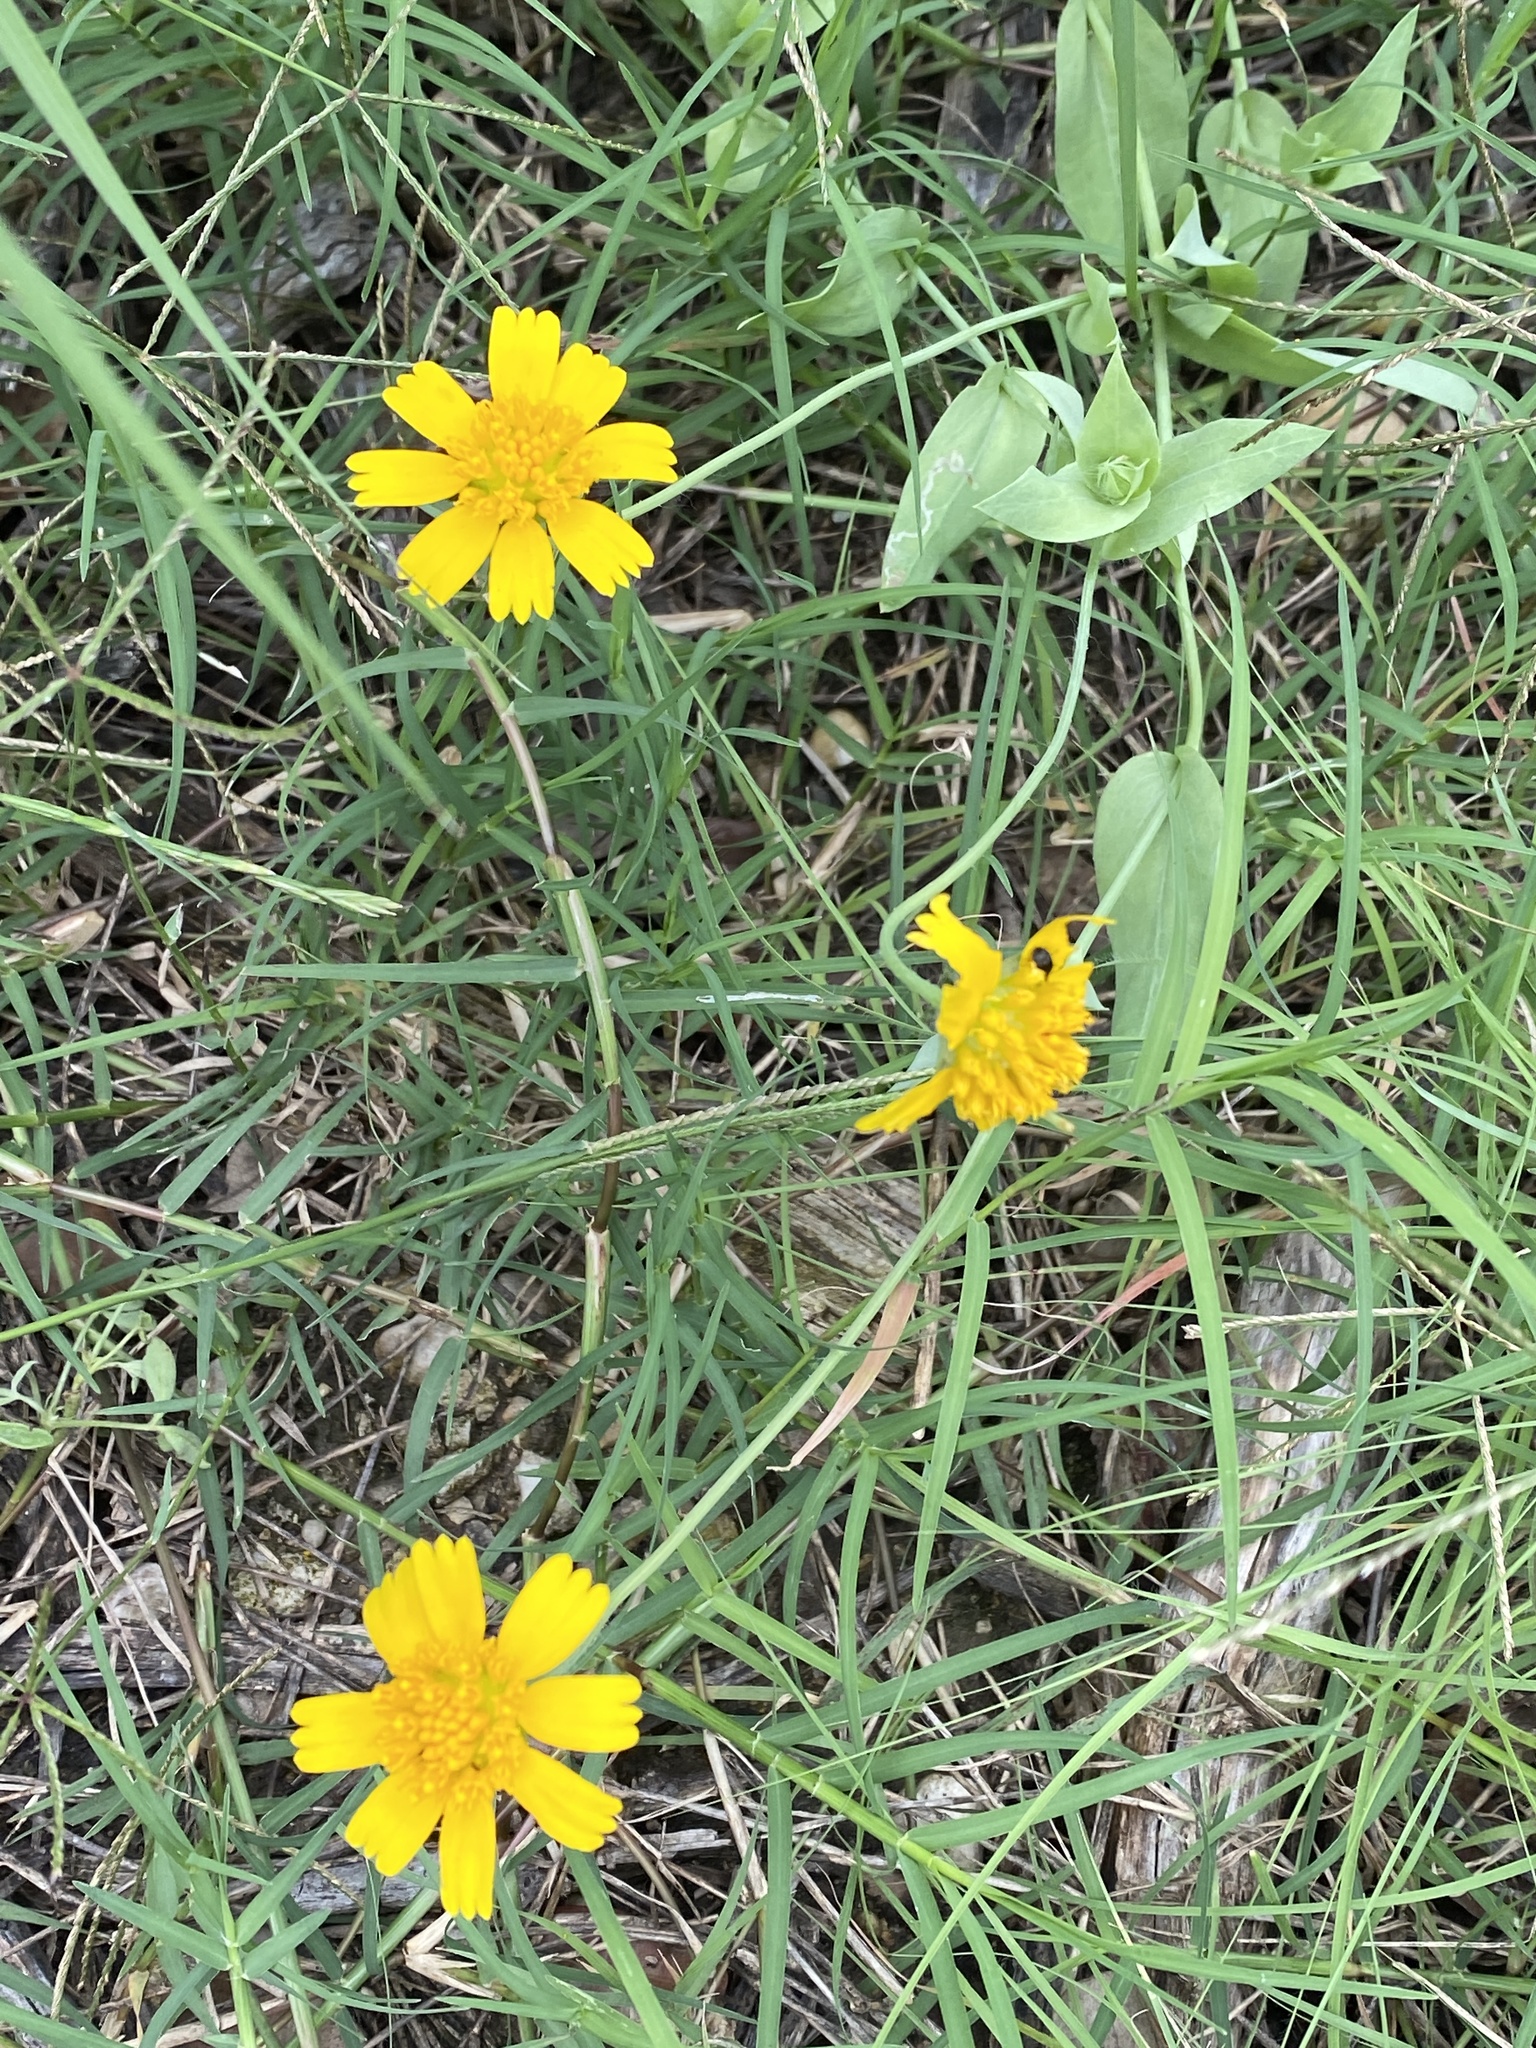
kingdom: Plantae
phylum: Tracheophyta
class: Magnoliopsida
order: Asterales
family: Asteraceae
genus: Tetraneuris
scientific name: Tetraneuris scaposa
